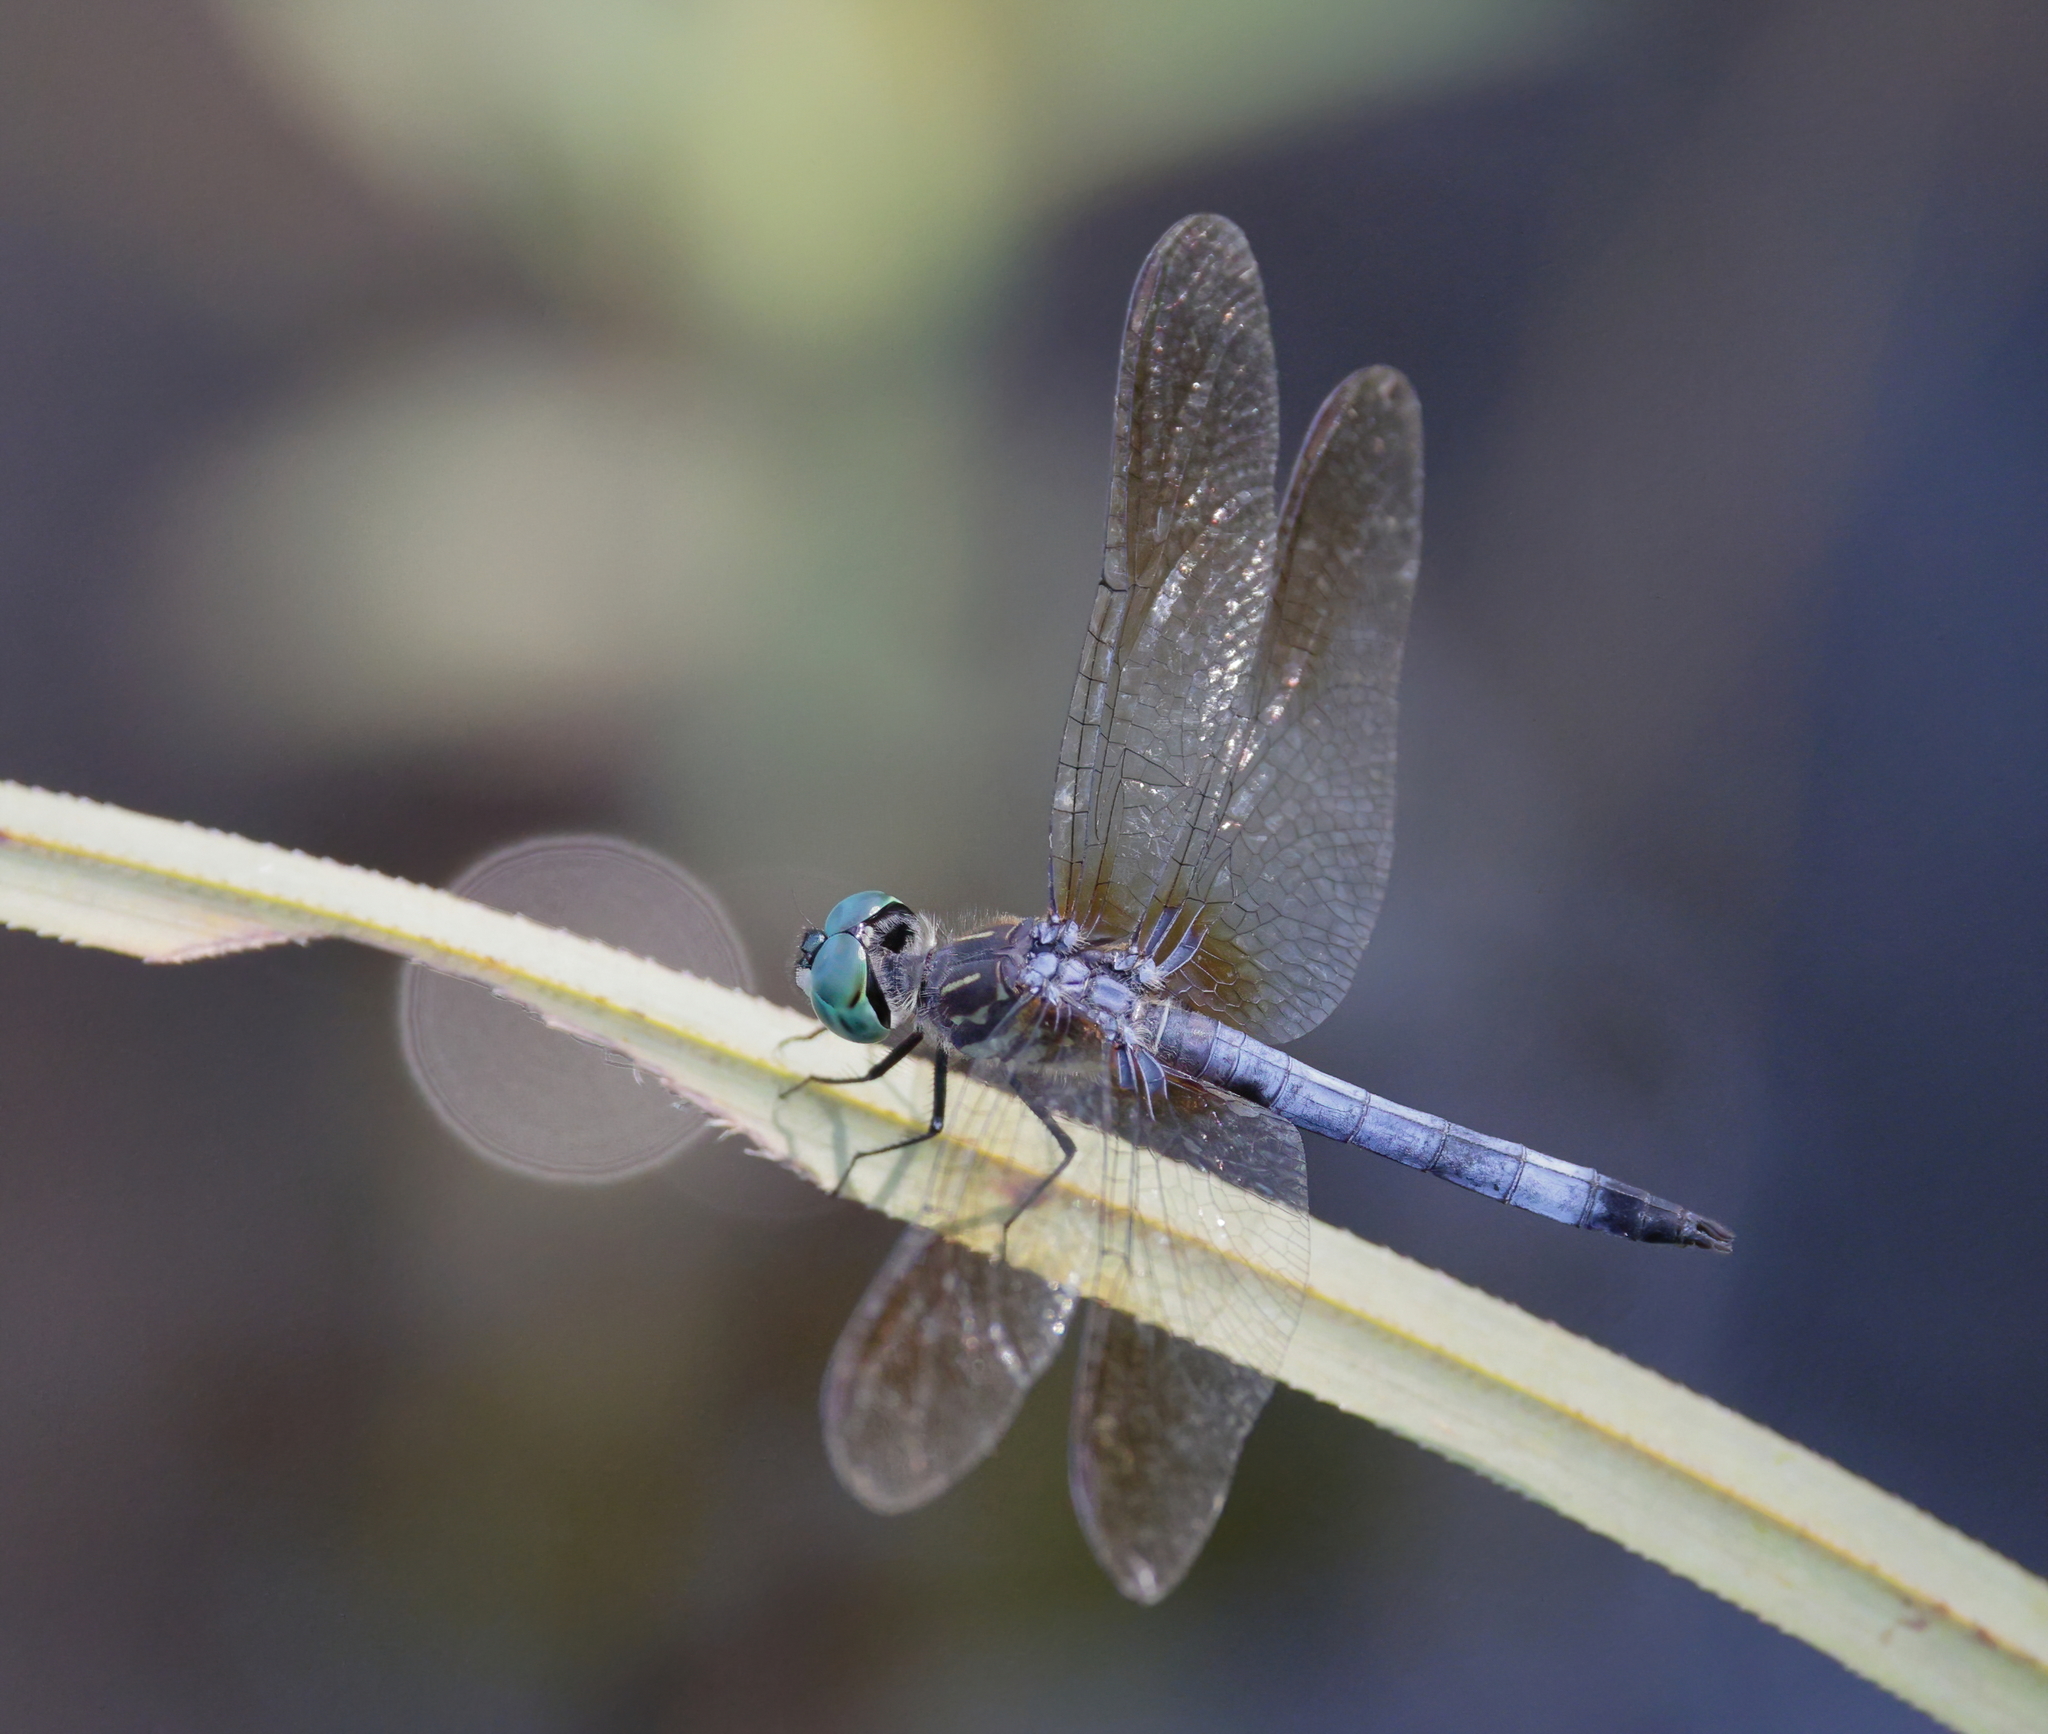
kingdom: Animalia
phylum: Arthropoda
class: Insecta
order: Odonata
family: Libellulidae
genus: Pachydiplax
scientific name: Pachydiplax longipennis
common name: Blue dasher
